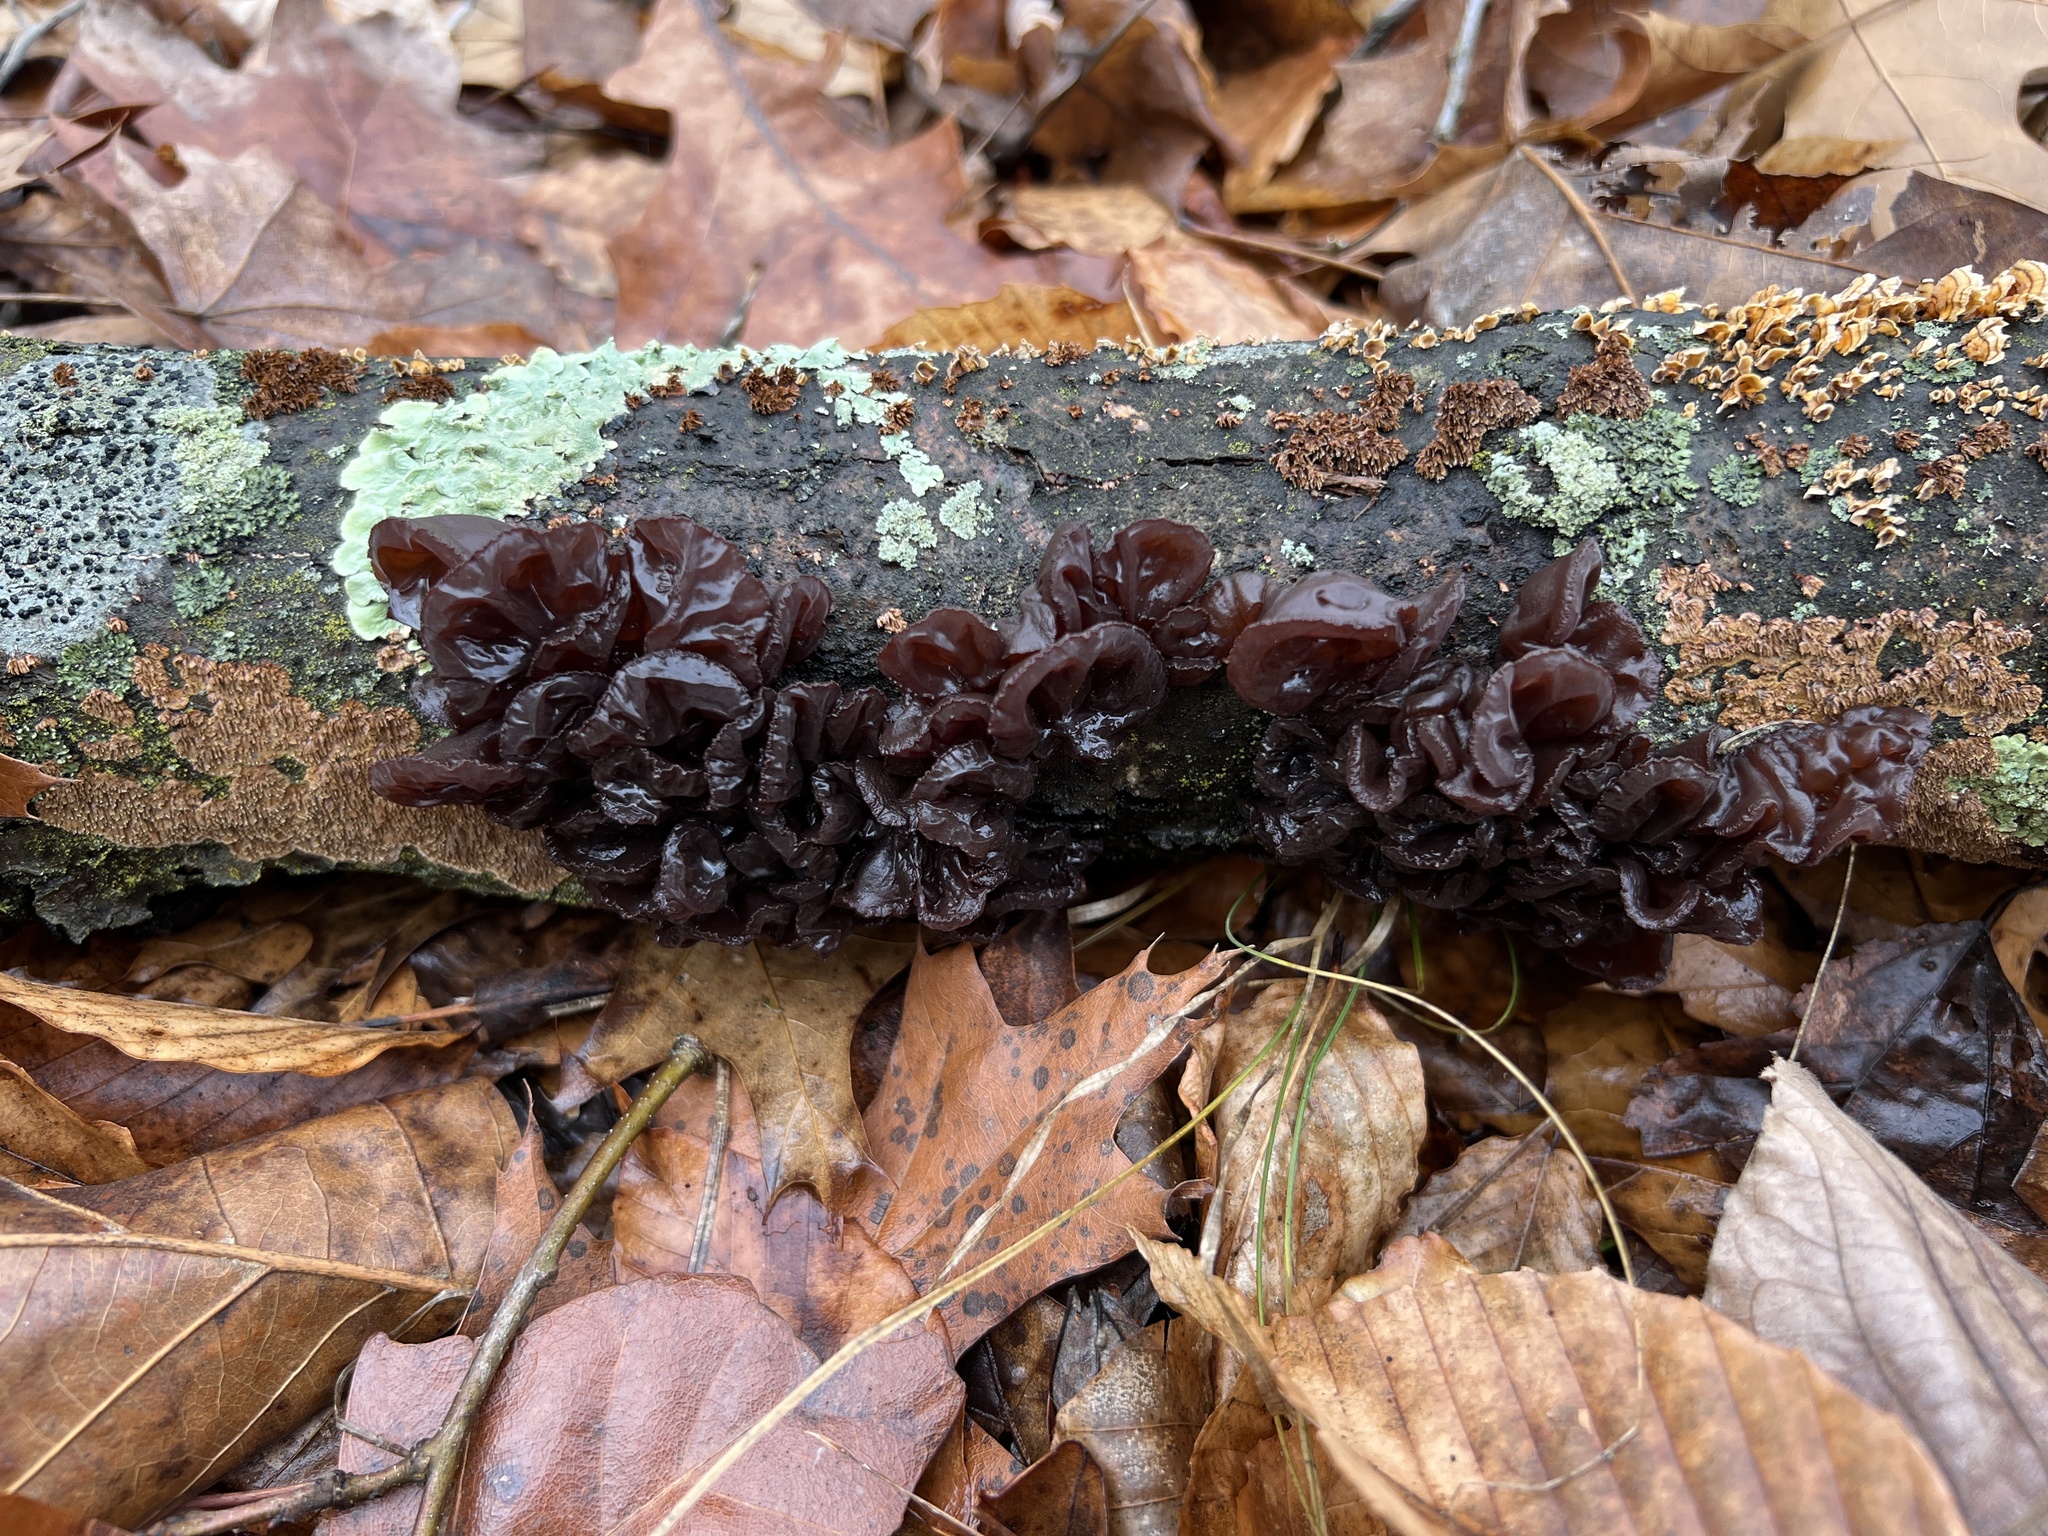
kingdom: Fungi
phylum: Basidiomycota
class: Agaricomycetes
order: Auriculariales
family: Auriculariaceae
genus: Exidia
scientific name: Exidia
